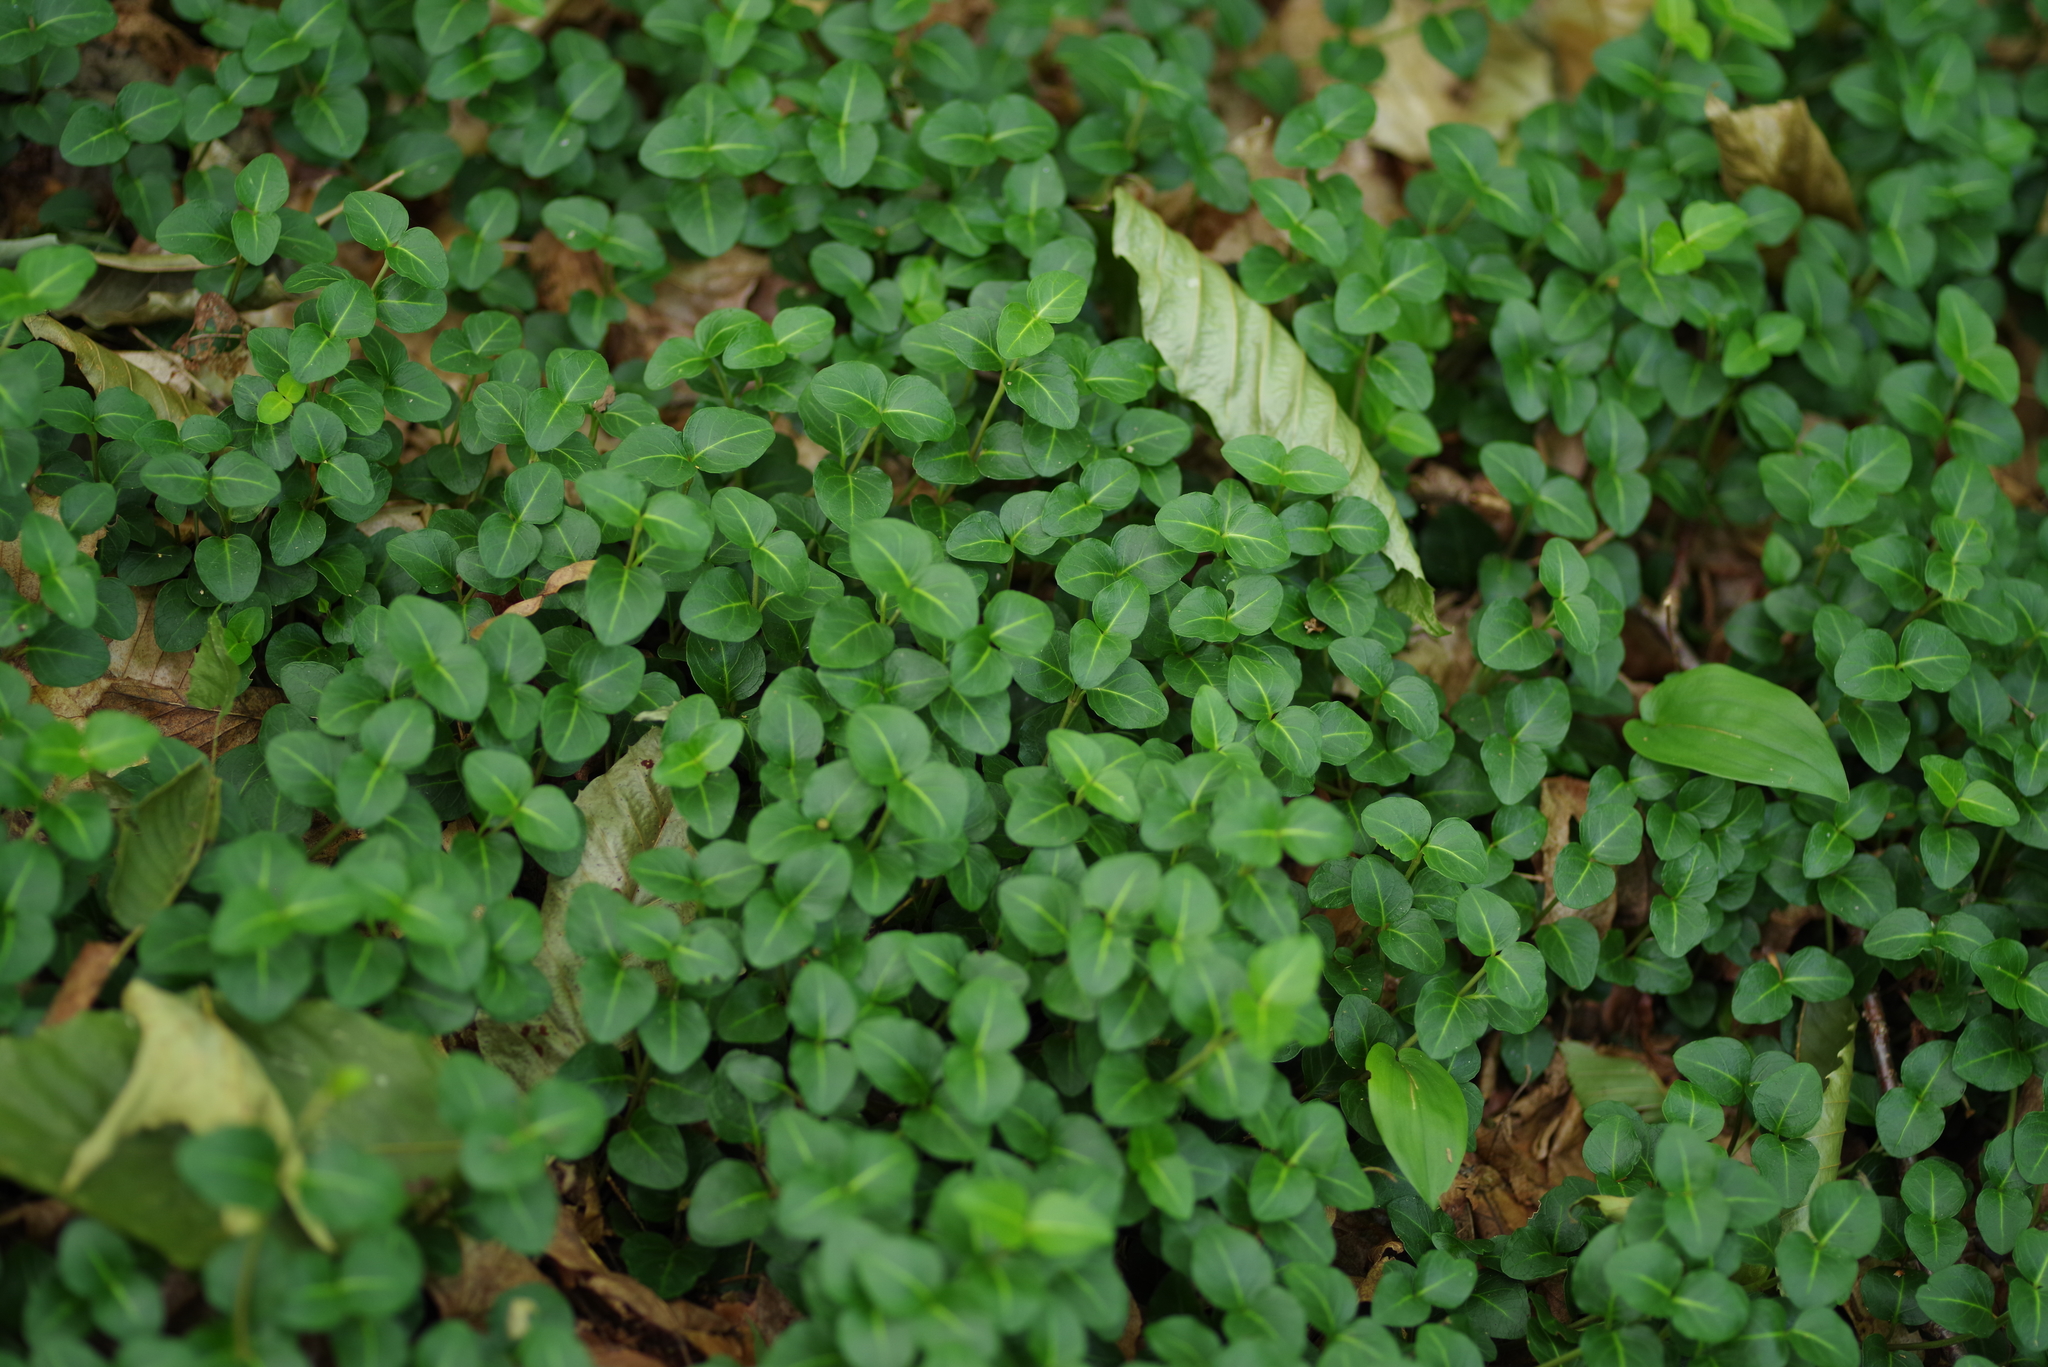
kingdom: Plantae
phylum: Tracheophyta
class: Magnoliopsida
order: Gentianales
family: Rubiaceae
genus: Mitchella
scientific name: Mitchella repens
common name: Partridge-berry
